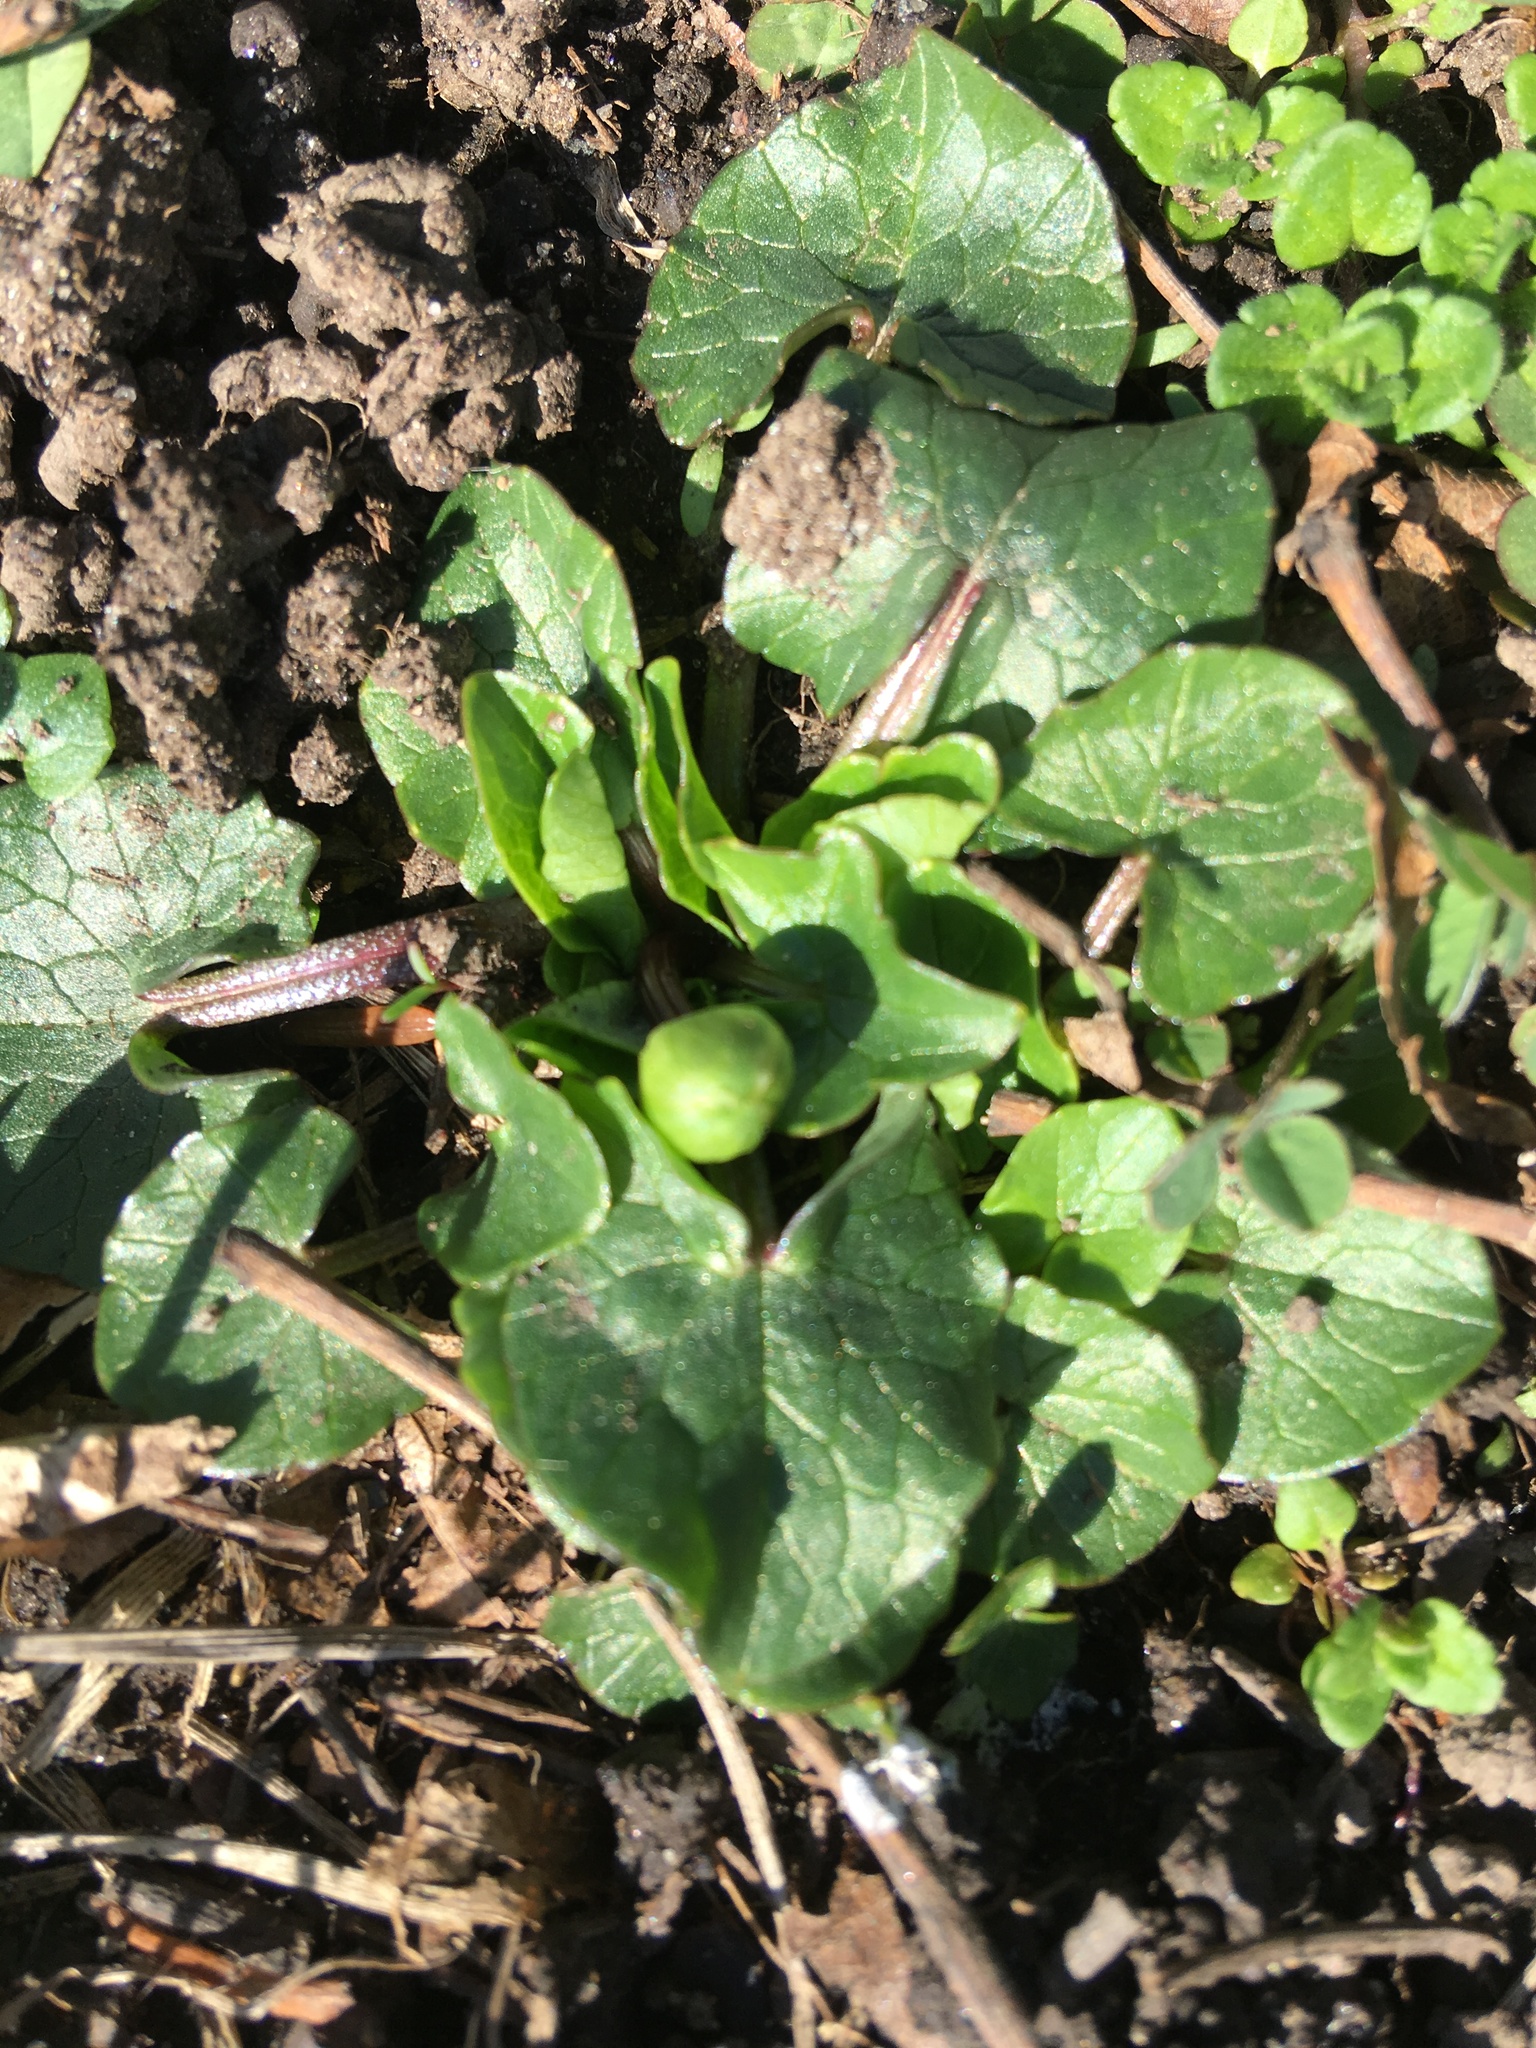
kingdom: Plantae
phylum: Tracheophyta
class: Magnoliopsida
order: Ranunculales
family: Ranunculaceae
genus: Ficaria
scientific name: Ficaria verna
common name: Lesser celandine
